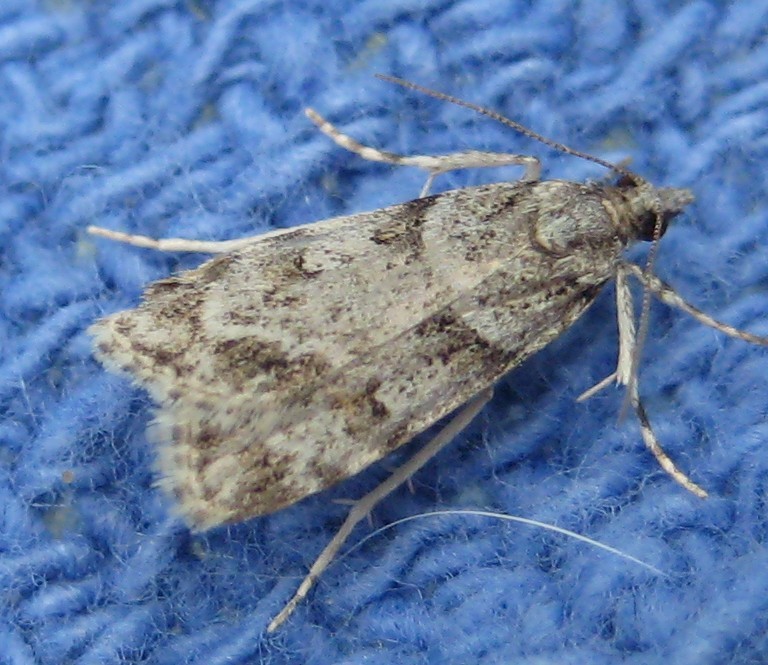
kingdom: Animalia
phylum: Arthropoda
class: Insecta
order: Lepidoptera
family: Crambidae
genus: Scoparia
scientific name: Scoparia biplagialis
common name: Double-striped scoparia moth
